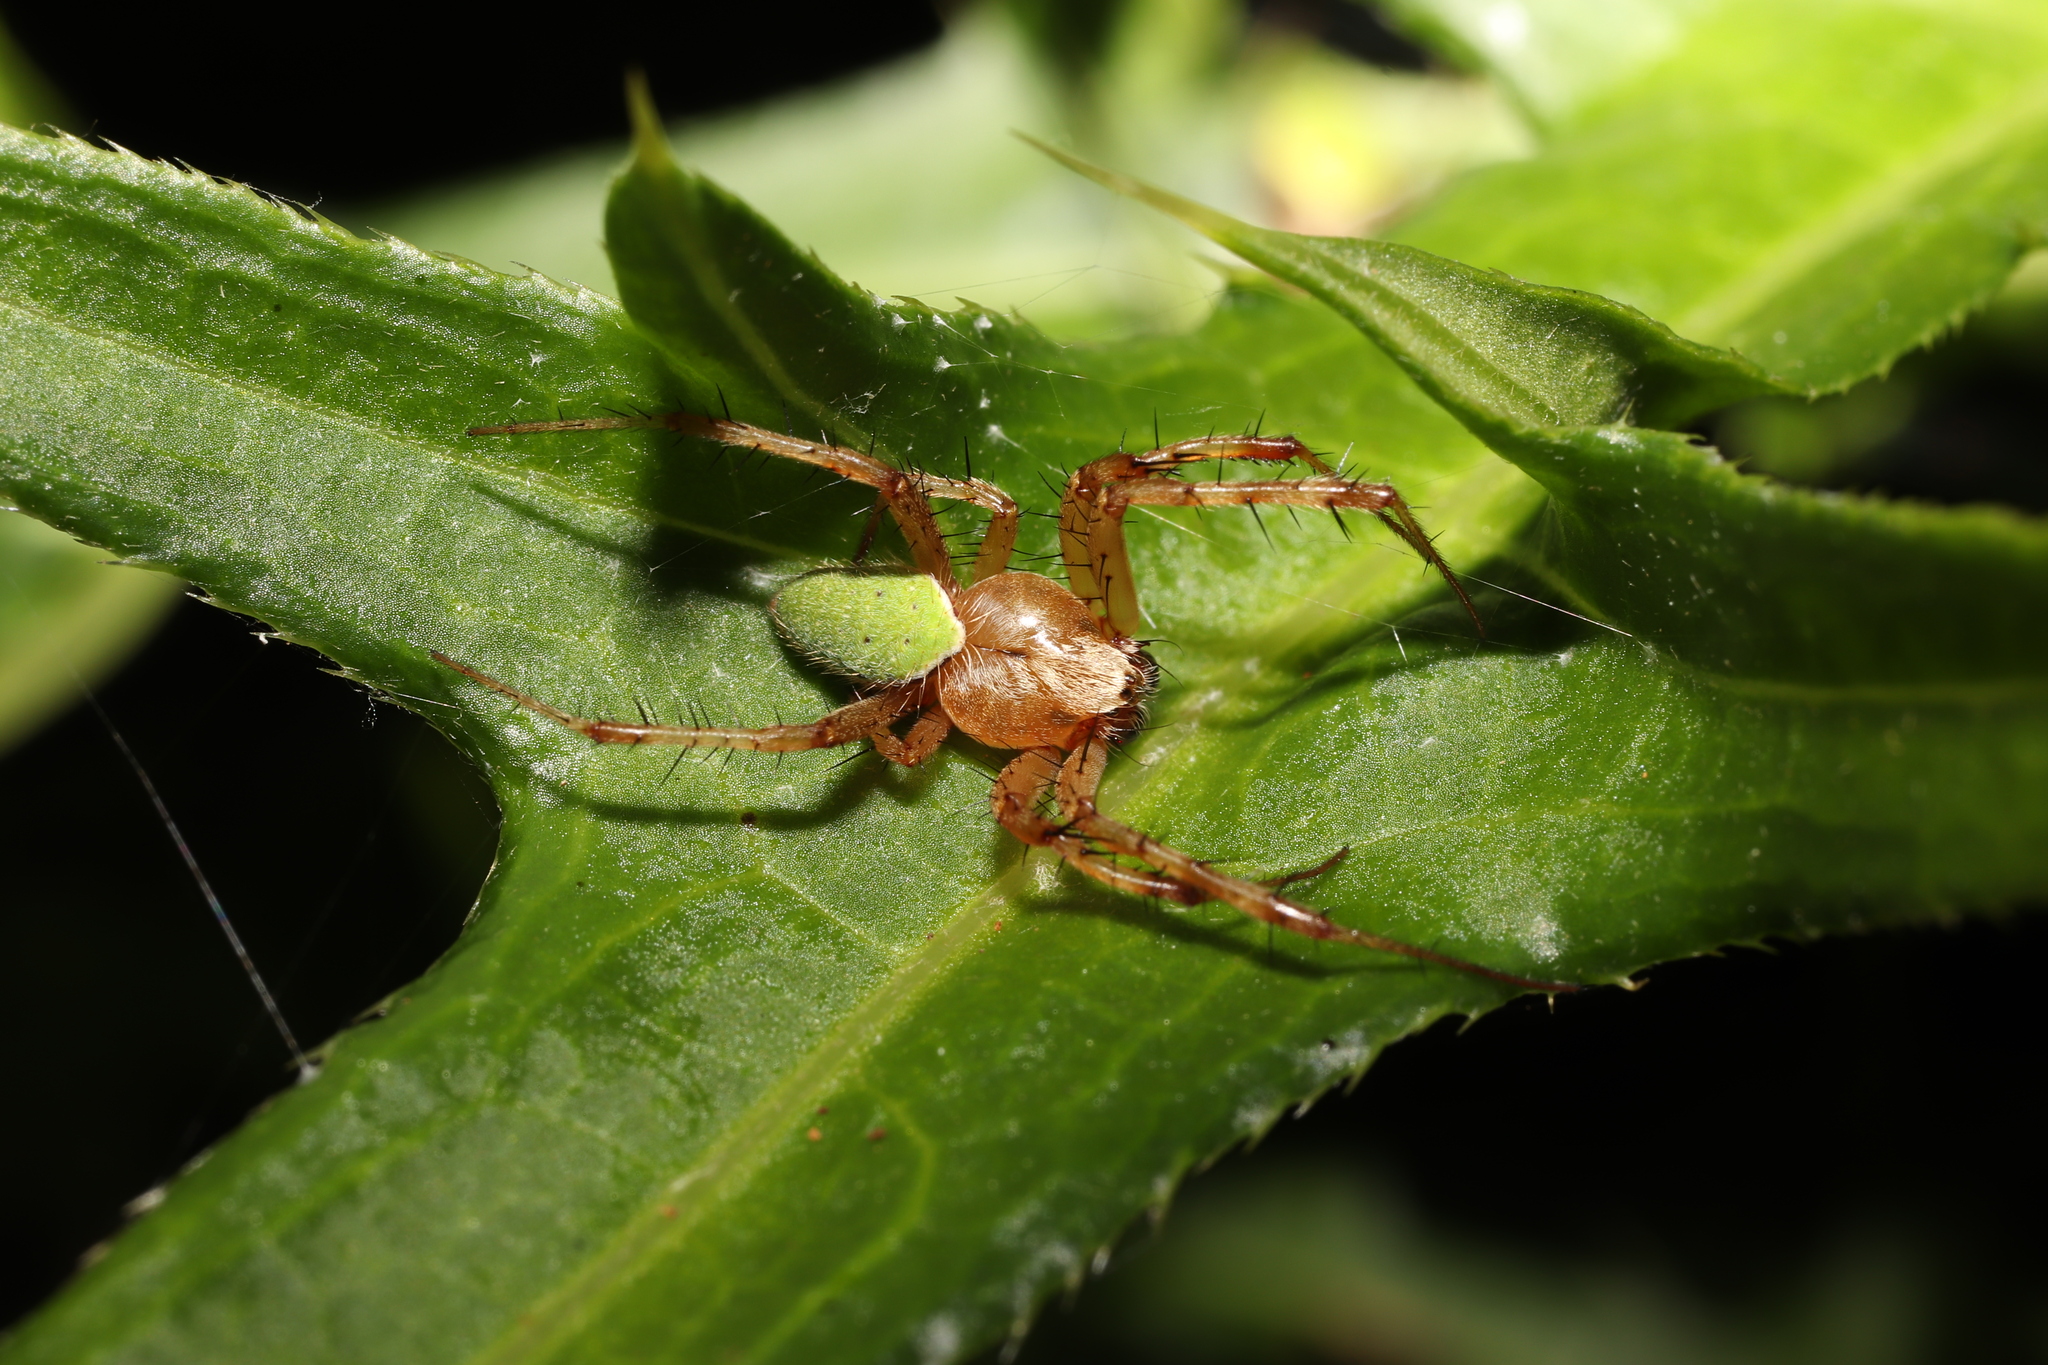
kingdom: Animalia
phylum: Arthropoda
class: Arachnida
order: Araneae
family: Araneidae
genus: Neoscona
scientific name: Neoscona mellotteei
